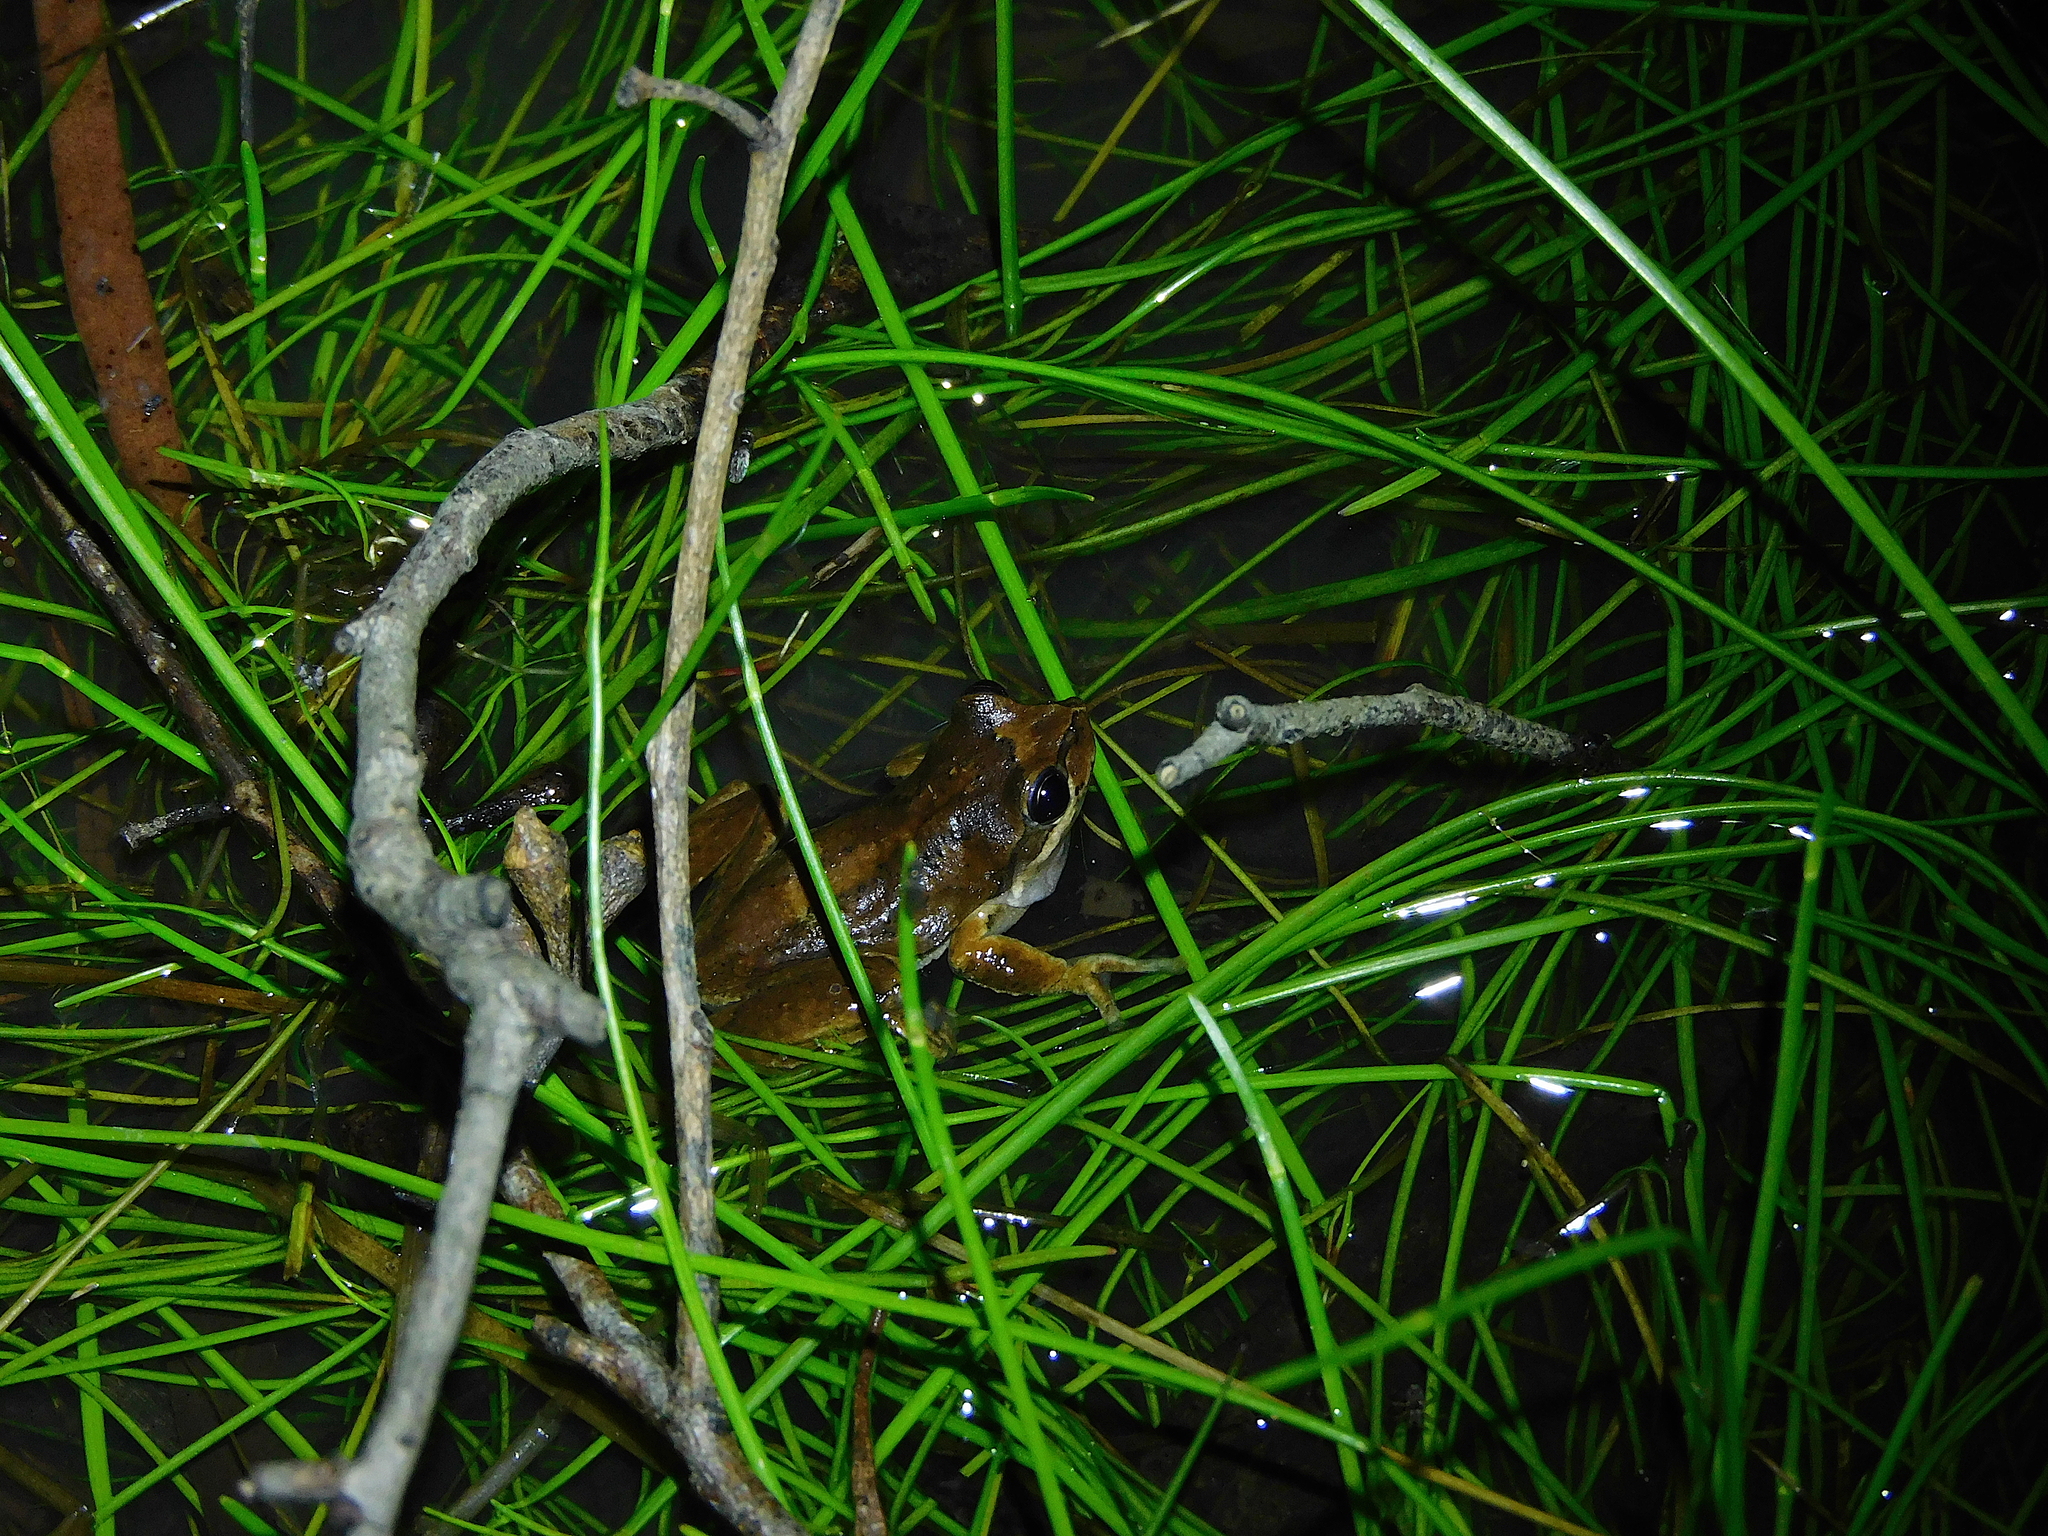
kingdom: Animalia
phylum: Chordata
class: Amphibia
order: Anura
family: Pelodryadidae
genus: Litoria
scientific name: Litoria ewingii
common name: Southern brown tree frog
